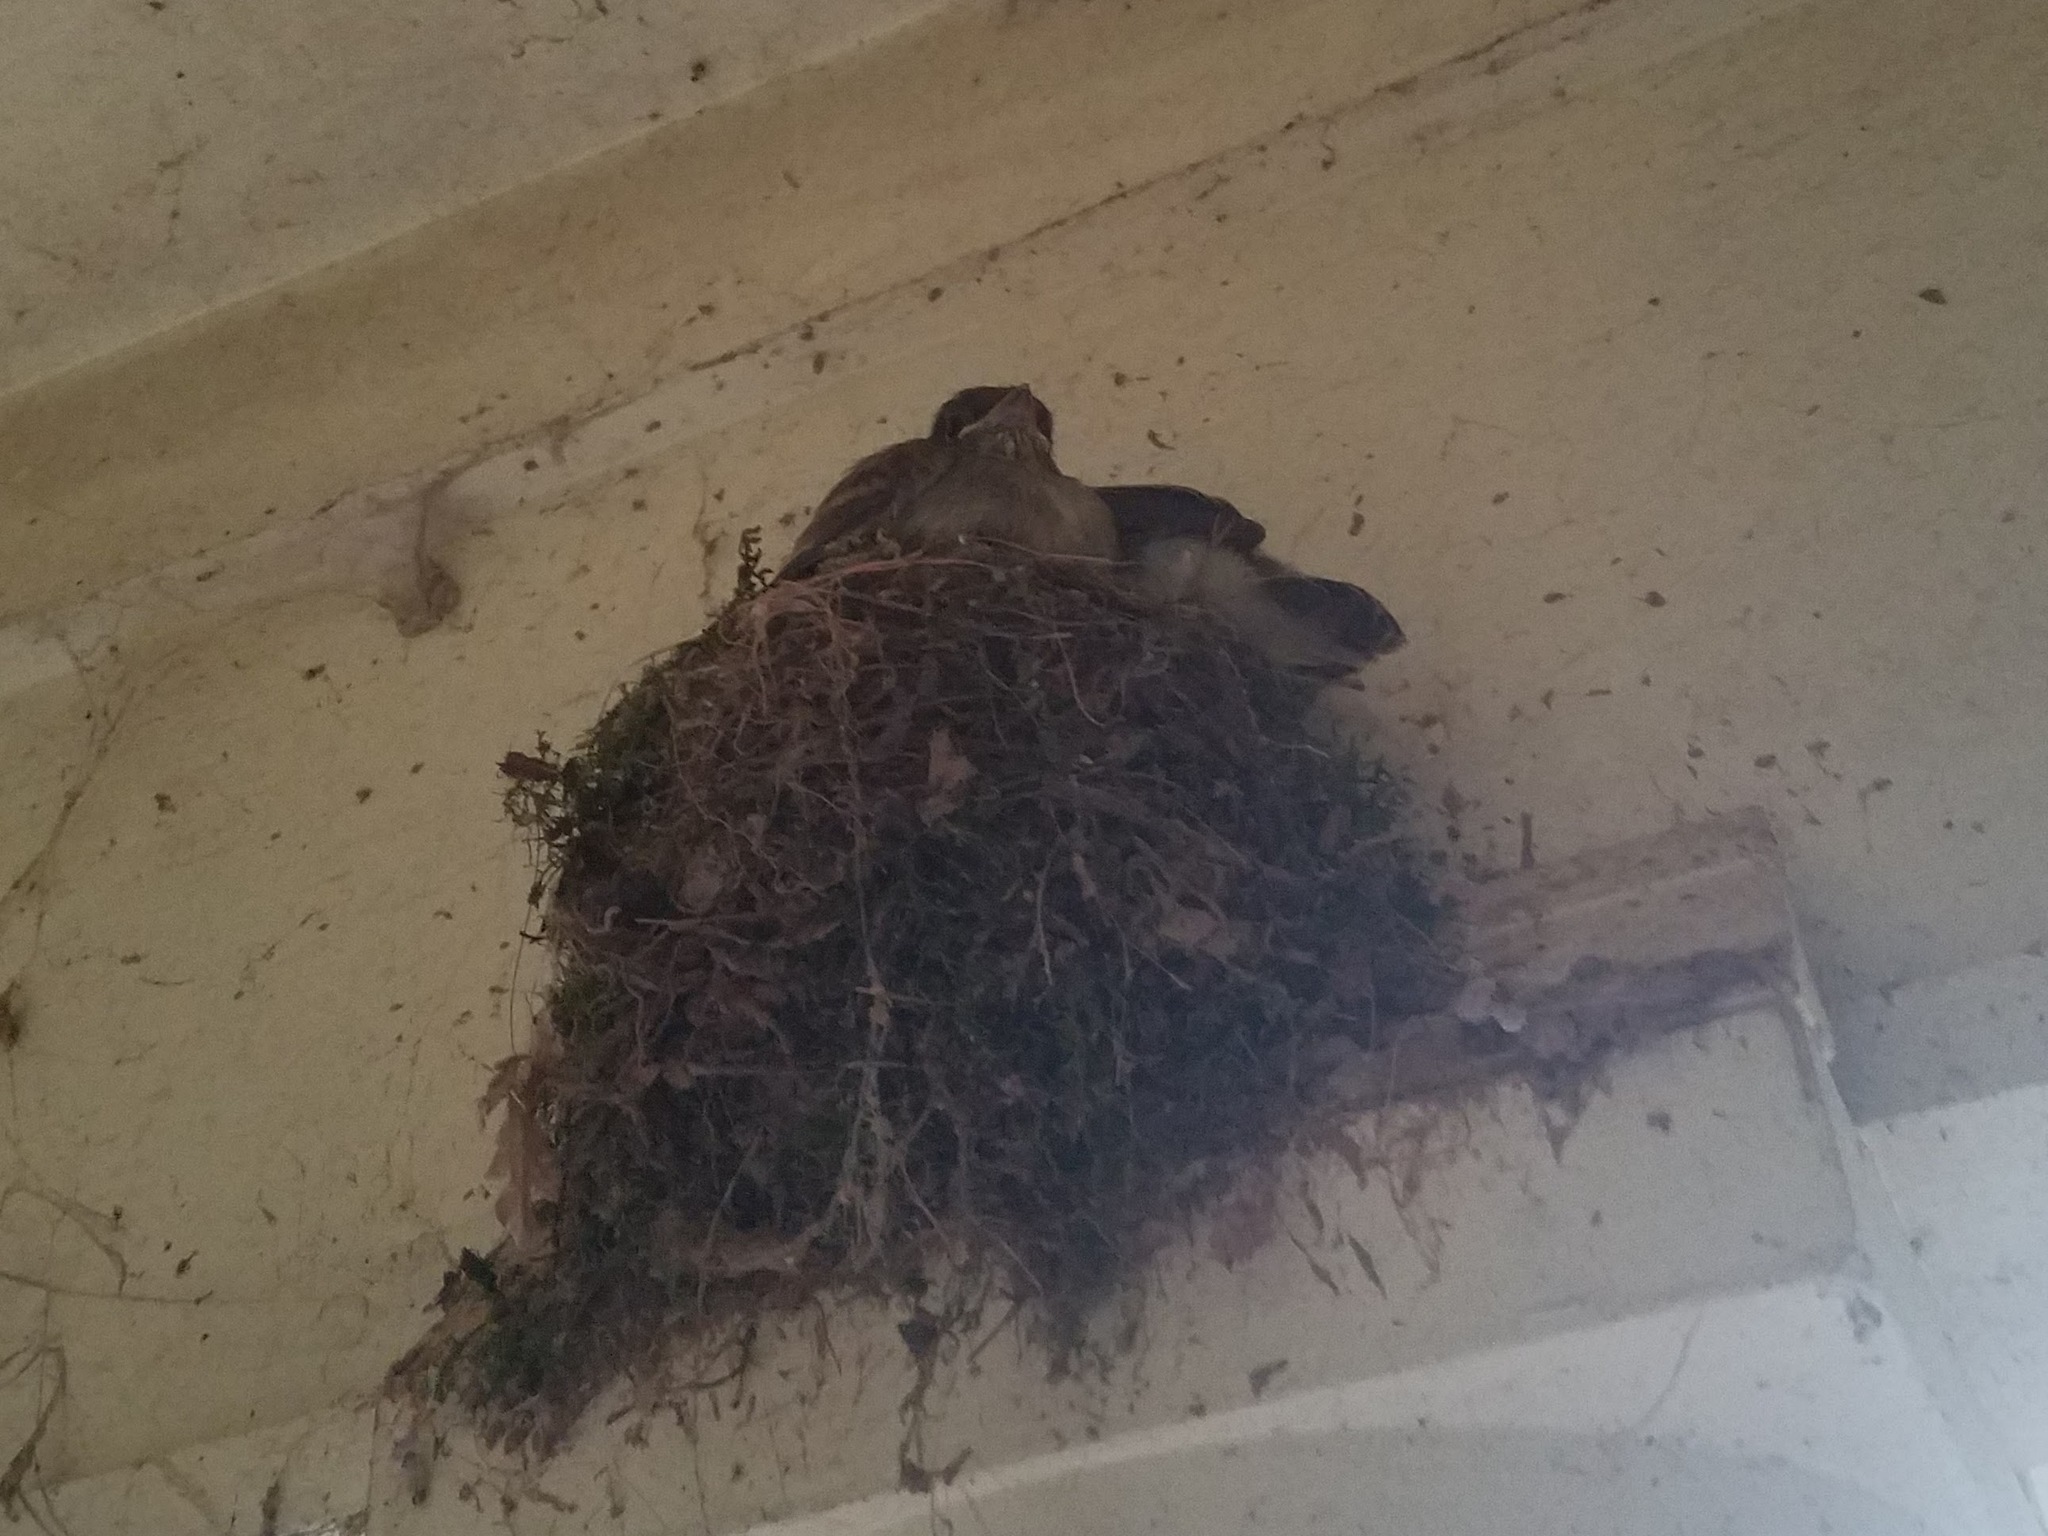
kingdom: Animalia
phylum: Chordata
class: Aves
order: Passeriformes
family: Tyrannidae
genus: Sayornis
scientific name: Sayornis phoebe
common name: Eastern phoebe
